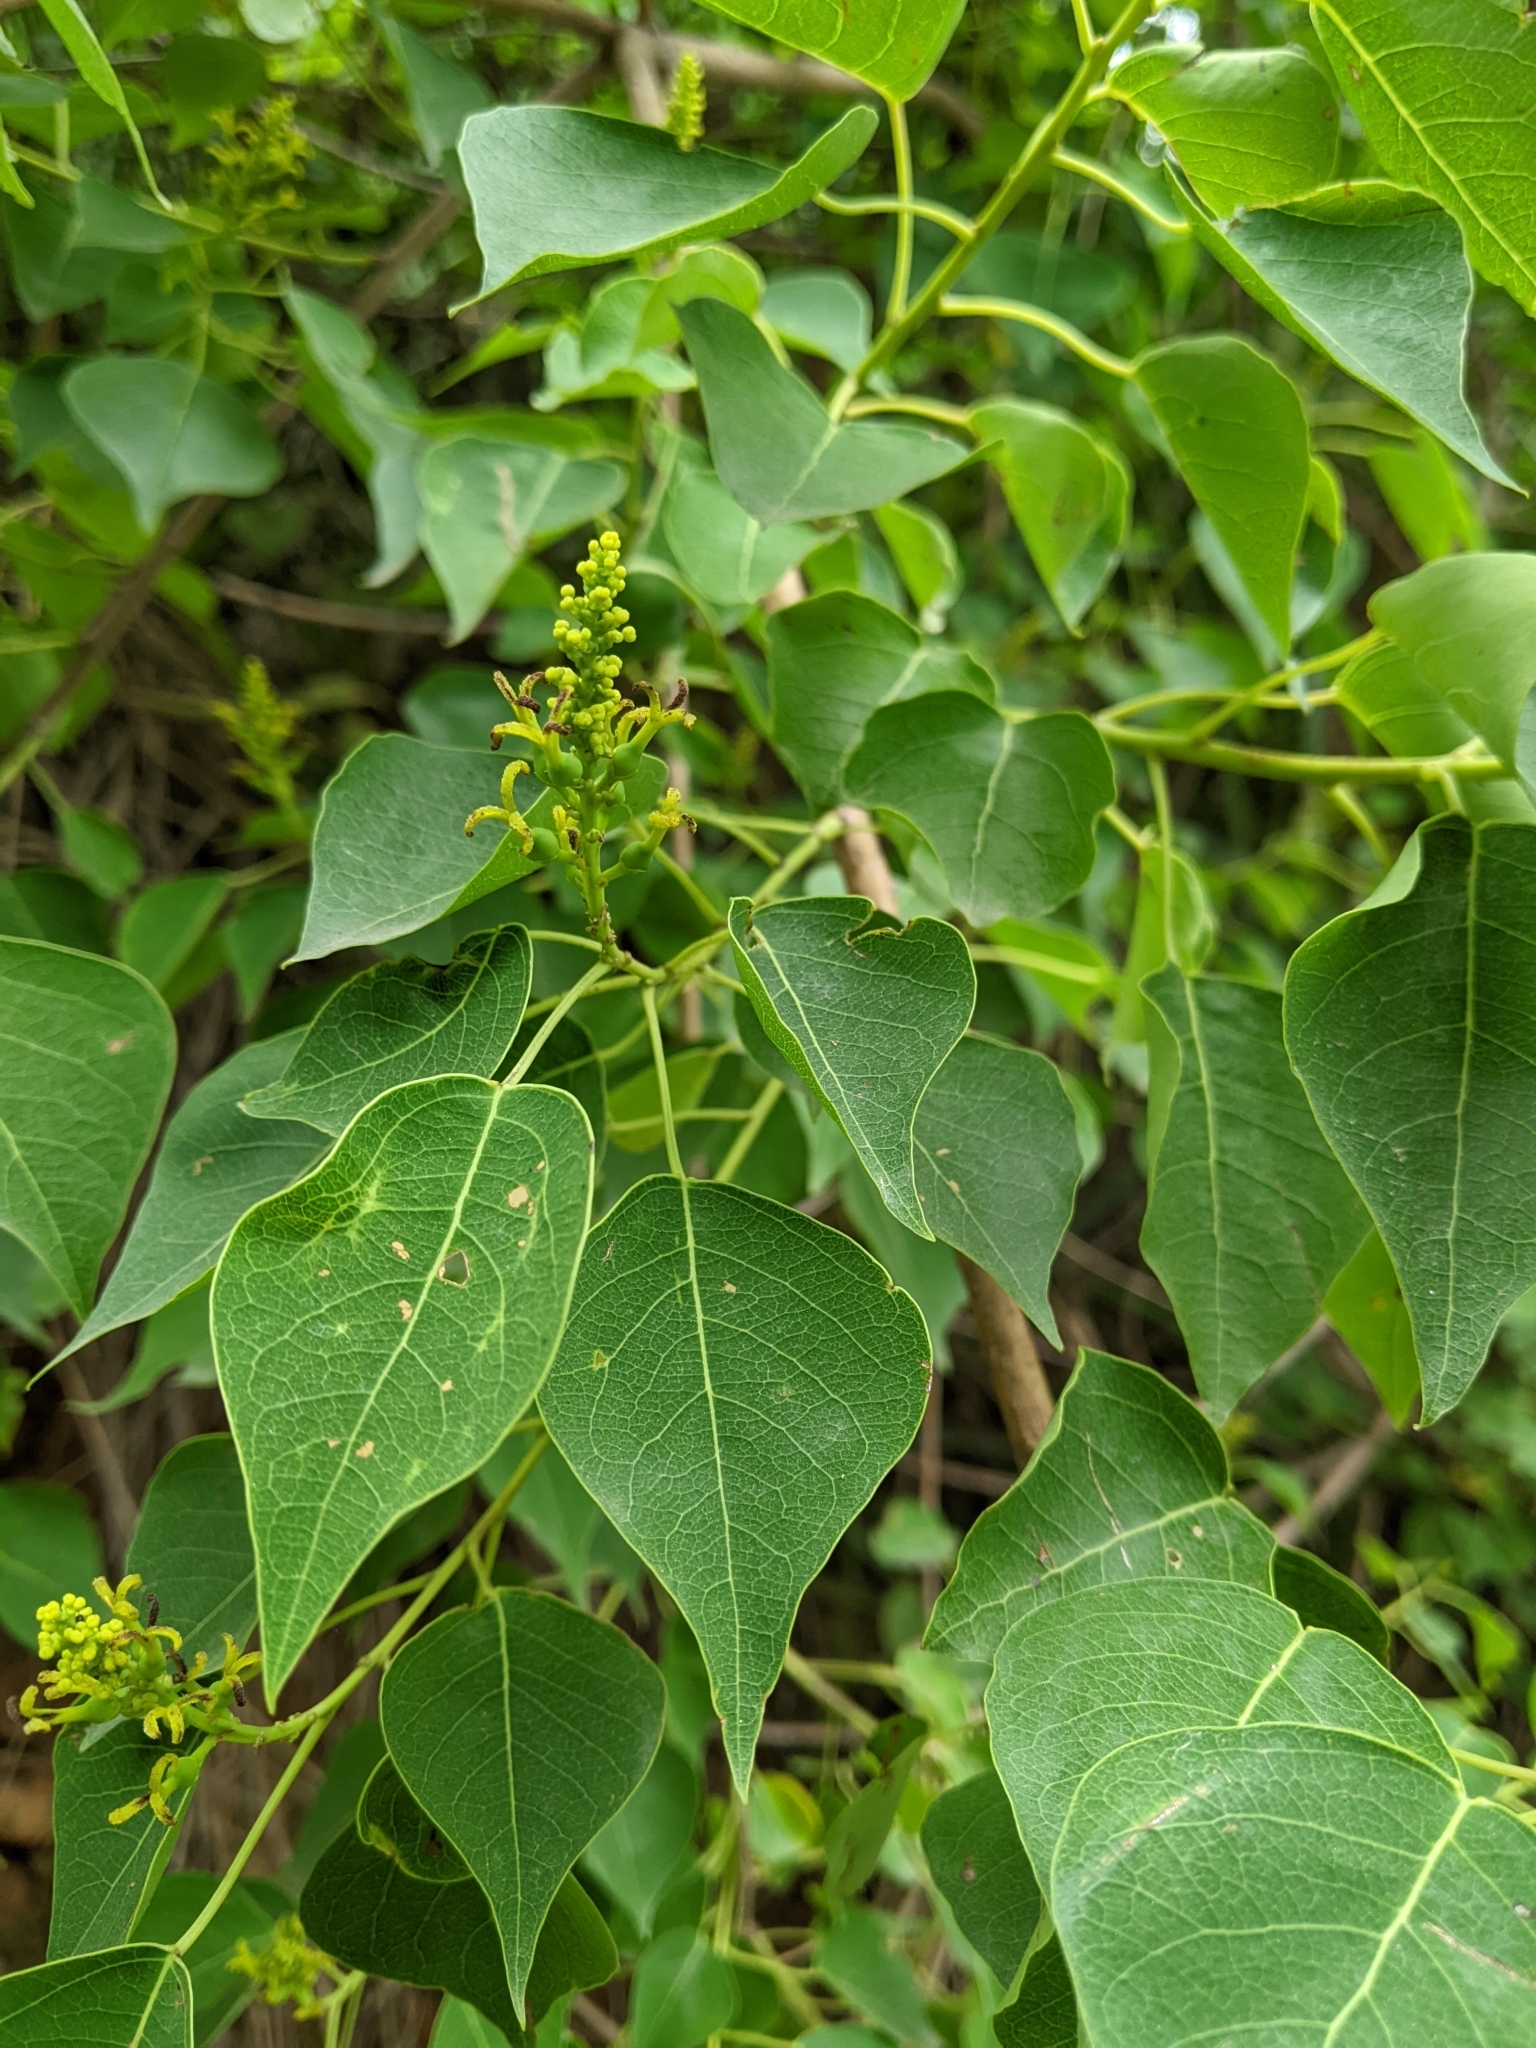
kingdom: Plantae
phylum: Tracheophyta
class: Magnoliopsida
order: Malpighiales
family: Euphorbiaceae
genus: Triadica
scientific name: Triadica sebifera
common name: Chinese tallow
